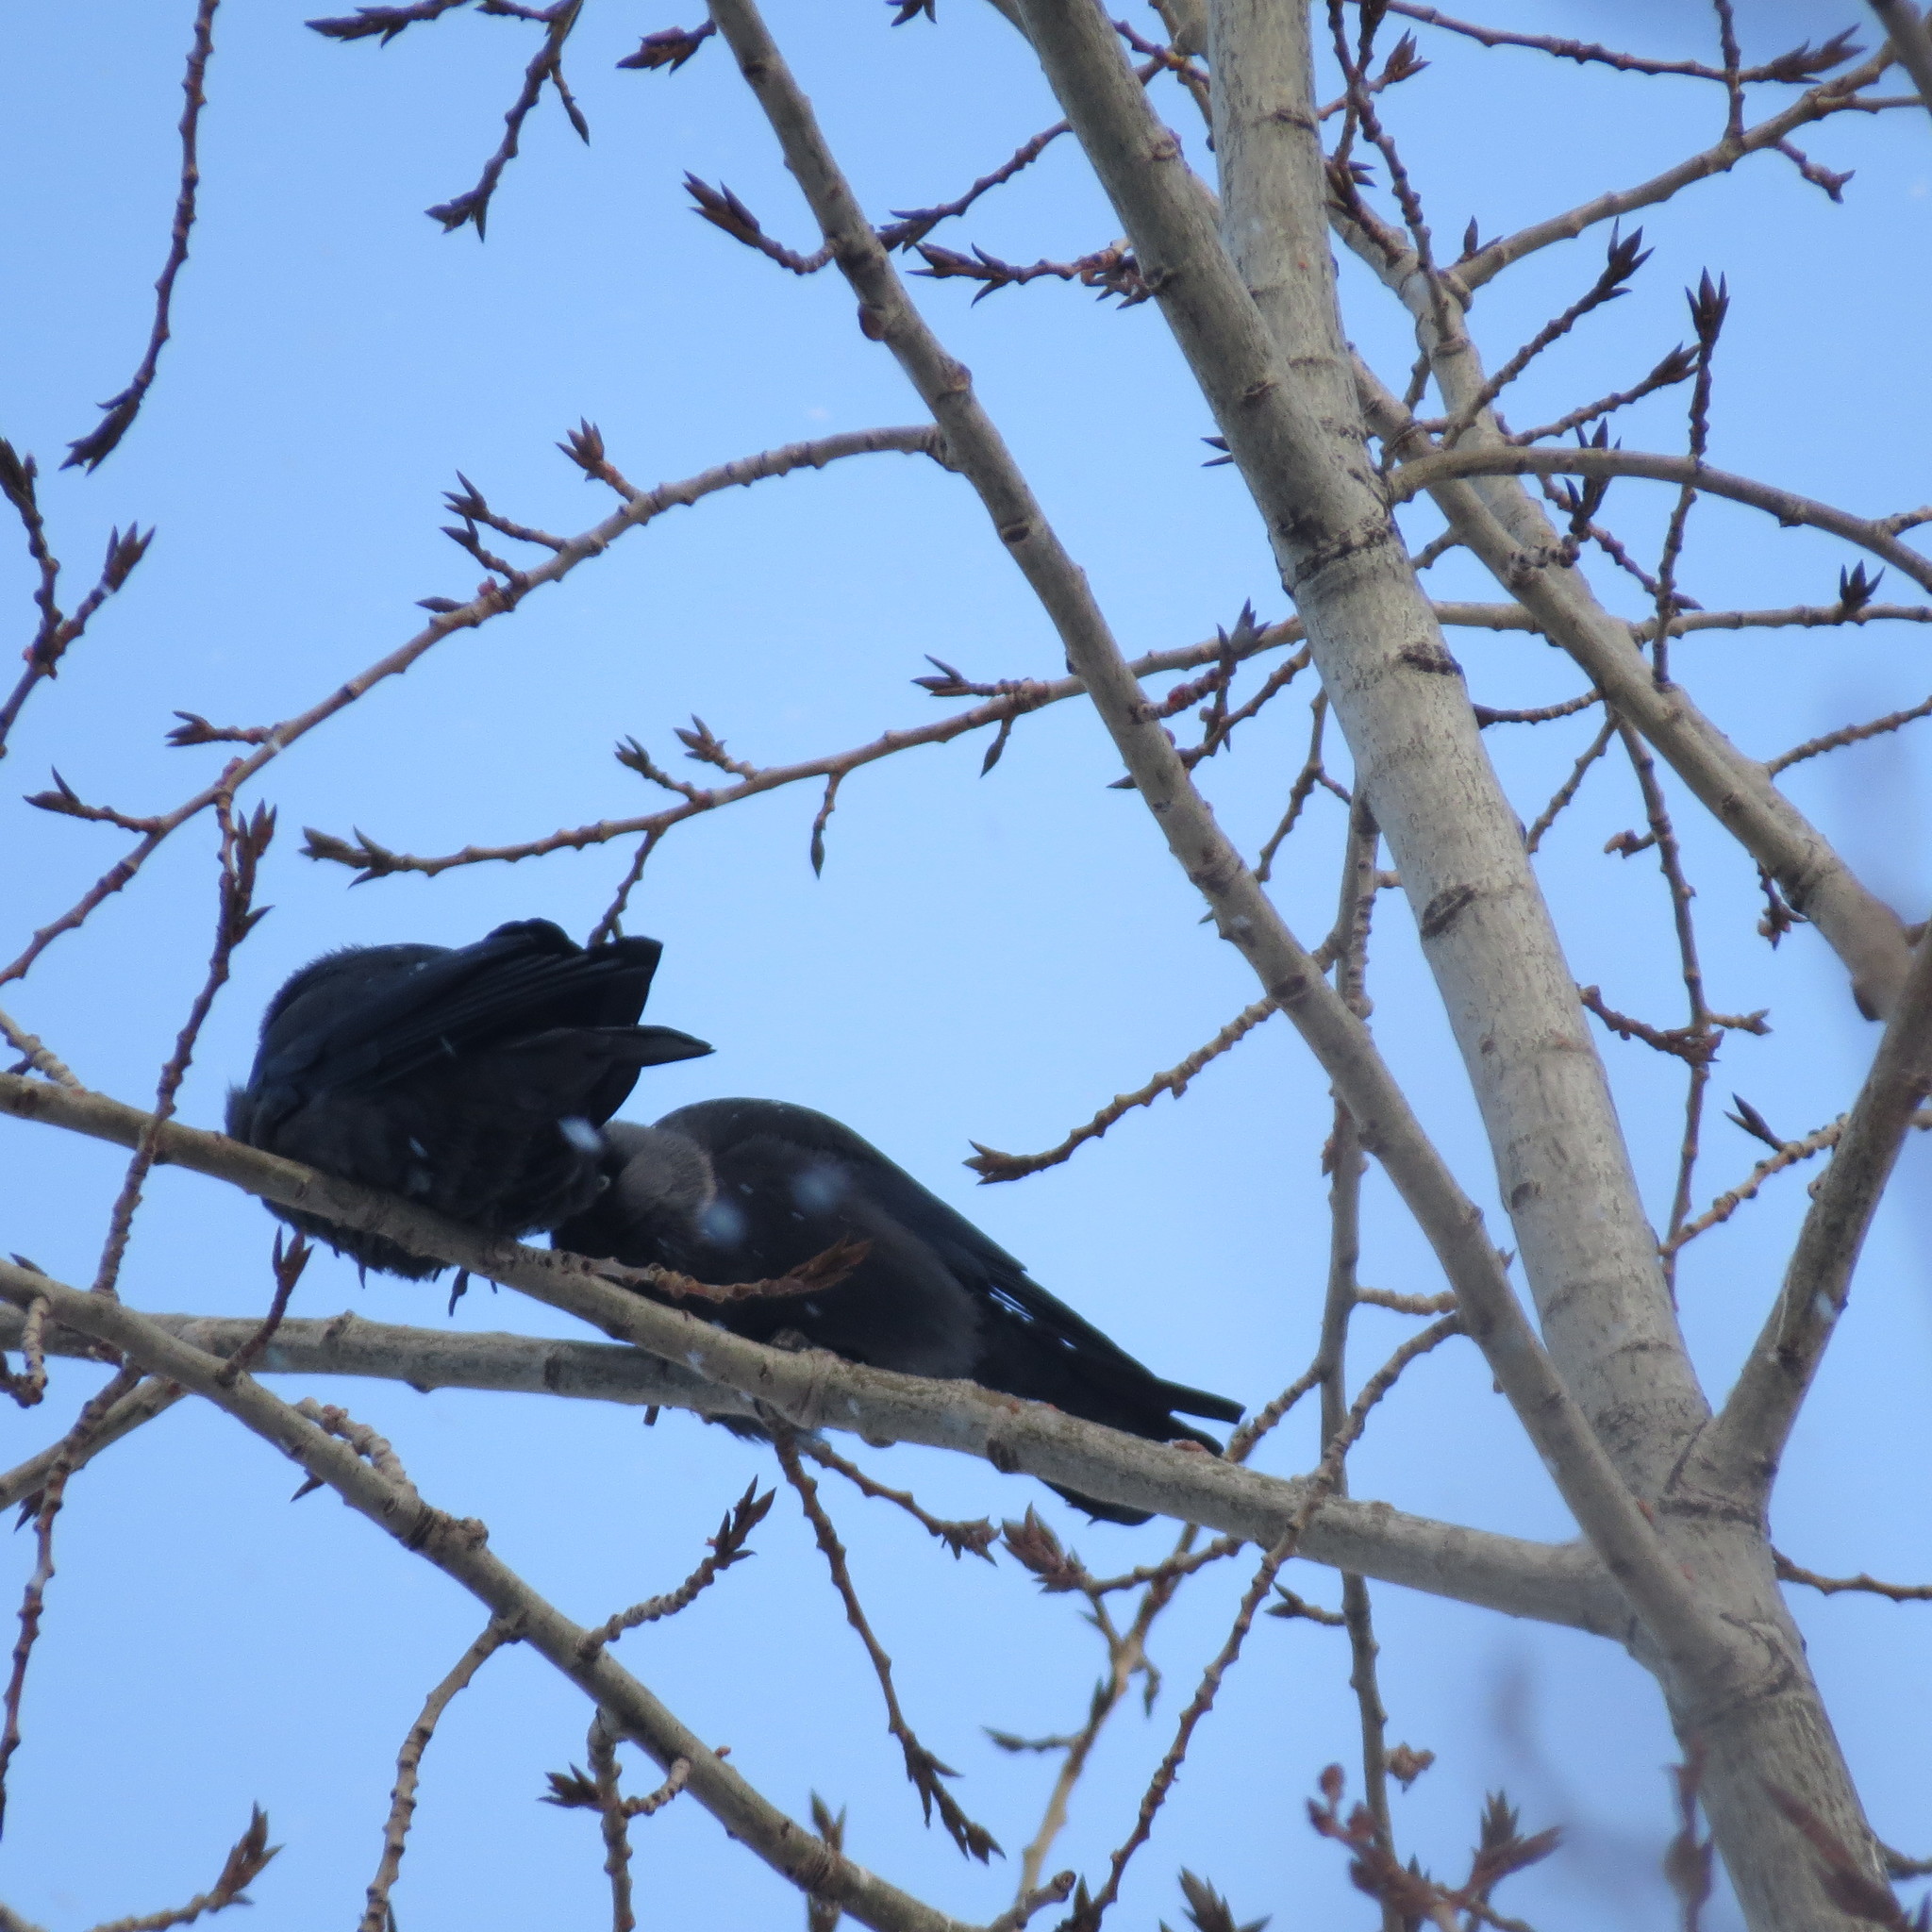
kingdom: Animalia
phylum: Chordata
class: Aves
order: Passeriformes
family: Corvidae
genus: Coloeus
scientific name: Coloeus monedula
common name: Western jackdaw
